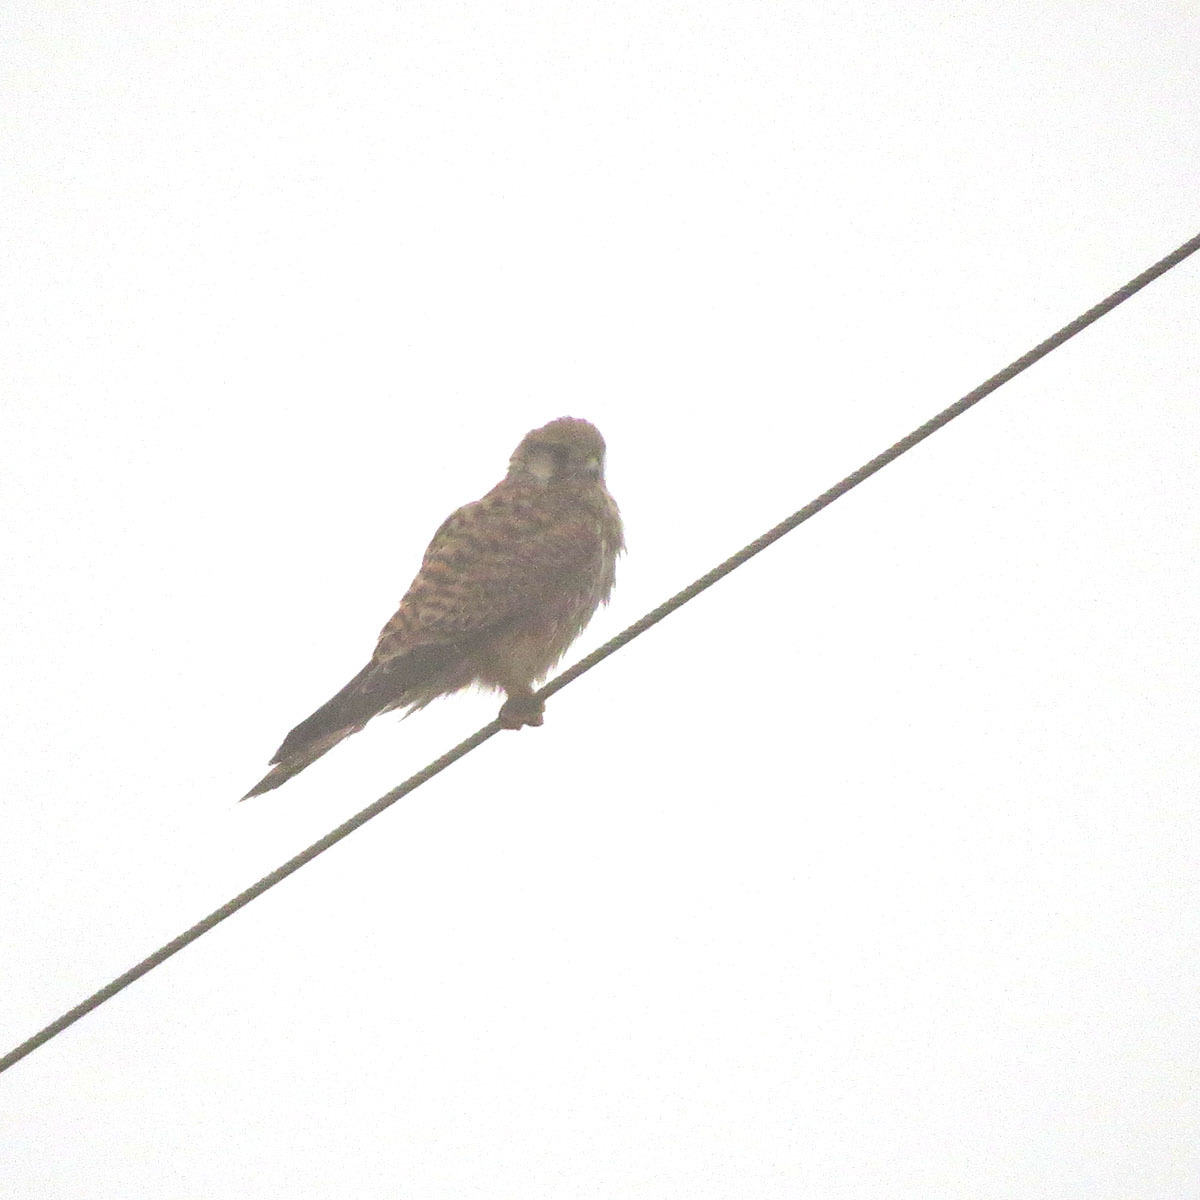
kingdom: Animalia
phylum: Chordata
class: Aves
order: Falconiformes
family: Falconidae
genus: Falco
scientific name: Falco tinnunculus
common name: Common kestrel
